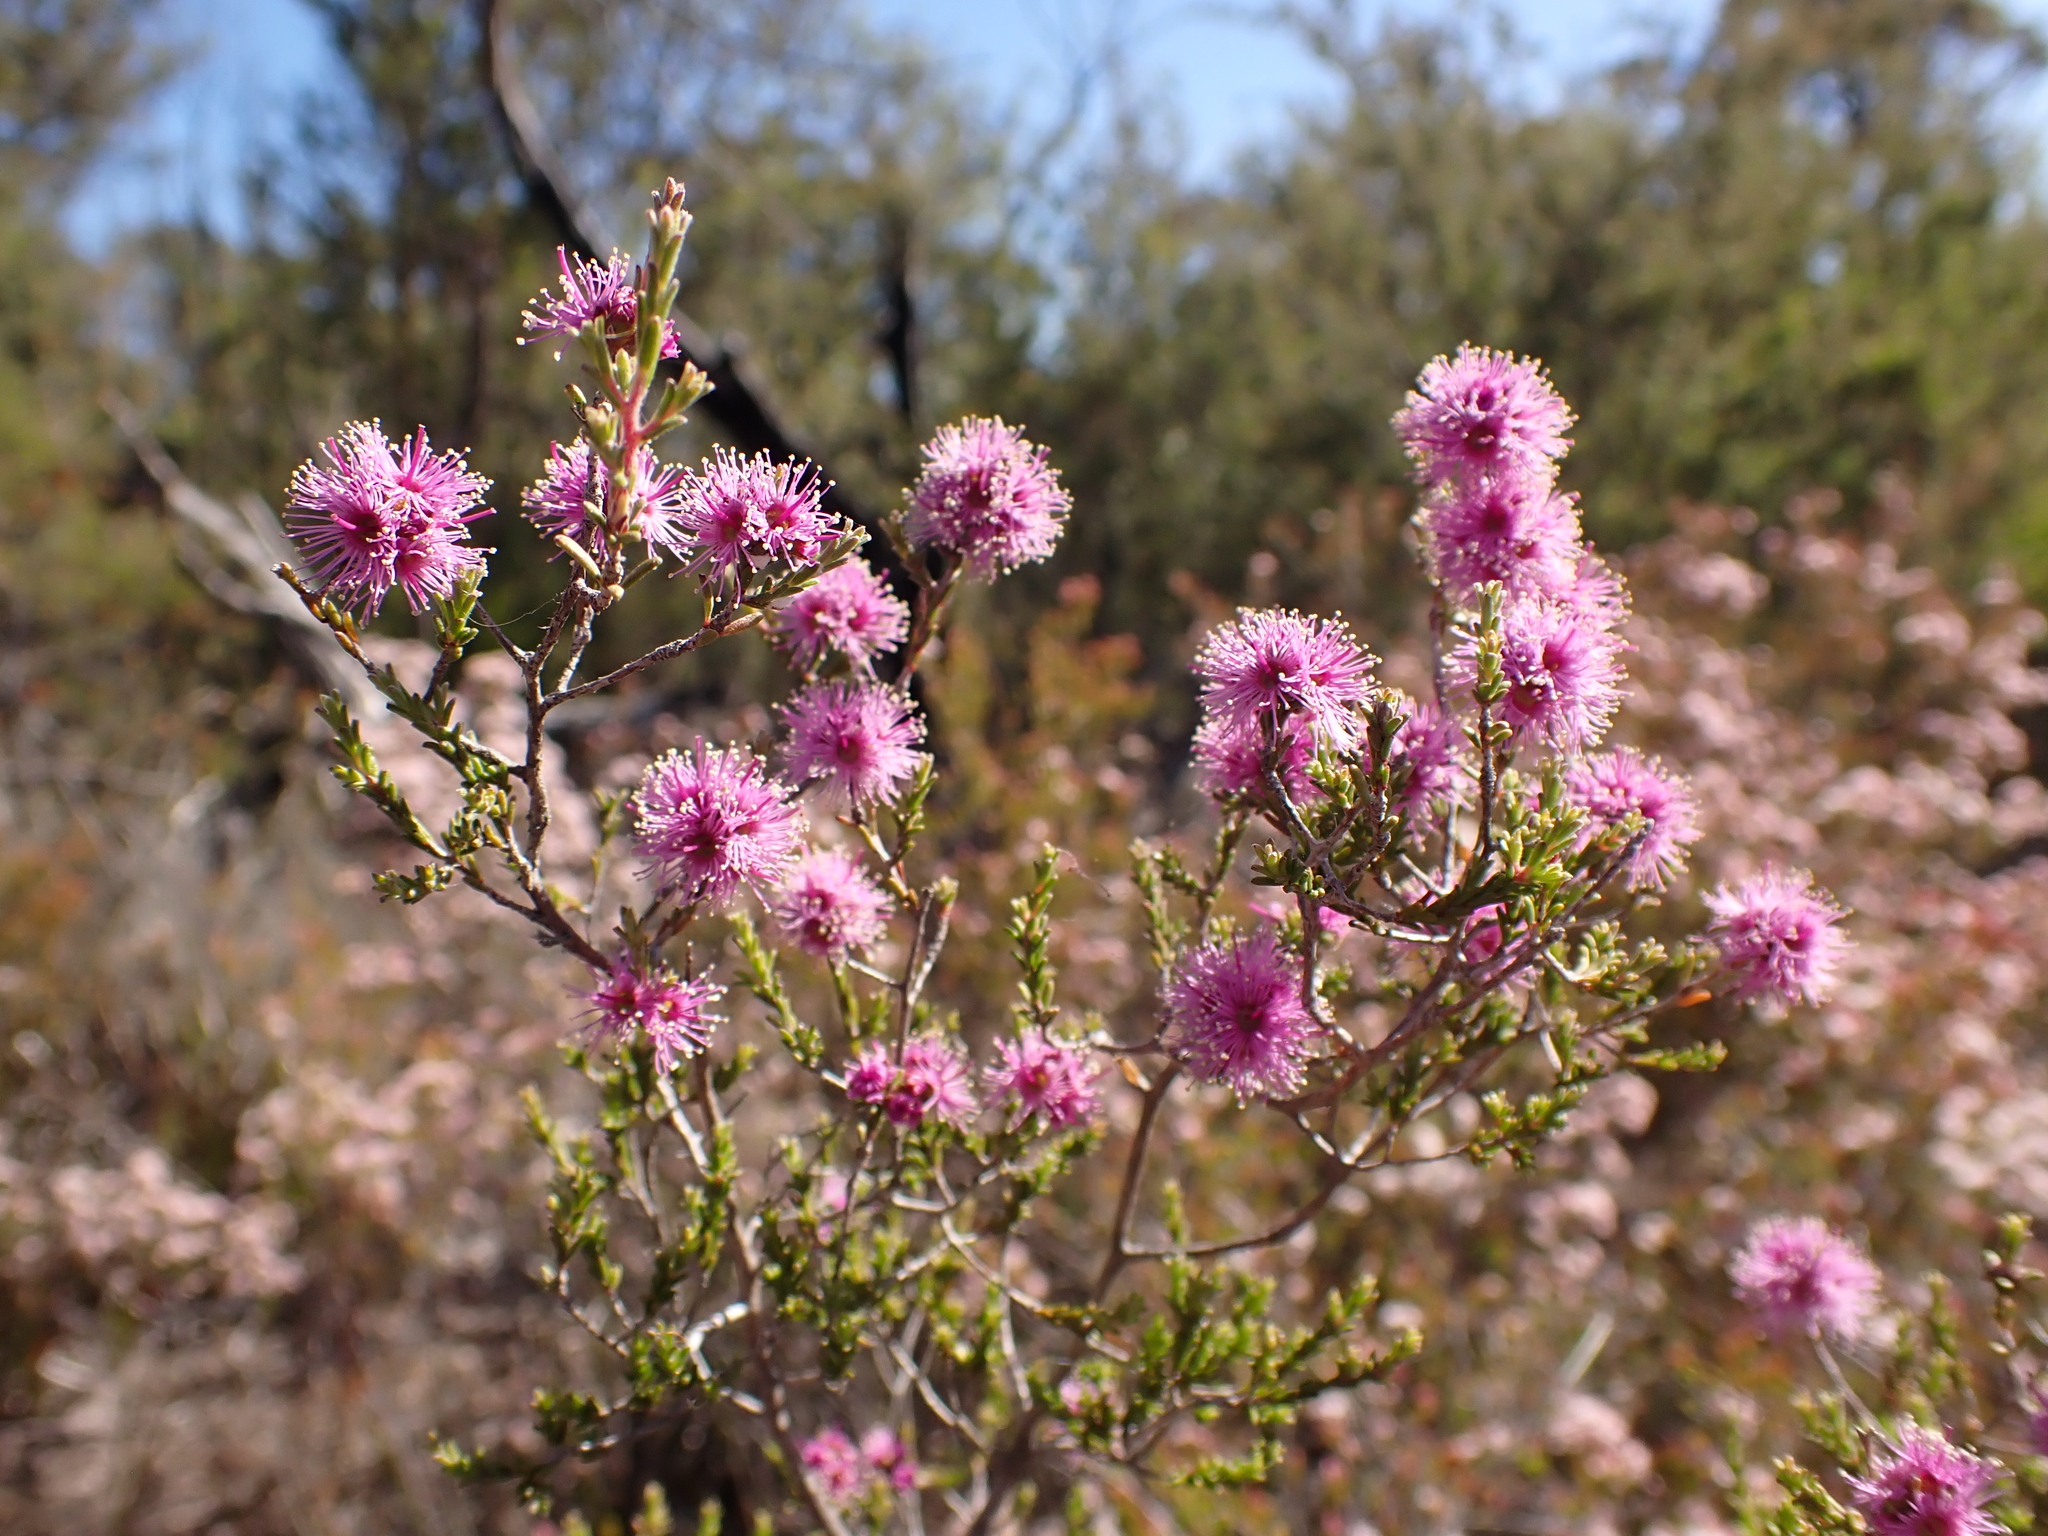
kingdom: Plantae
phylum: Tracheophyta
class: Magnoliopsida
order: Myrtales
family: Myrtaceae
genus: Kunzea
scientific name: Kunzea parvifolia
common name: Violet kunzea
